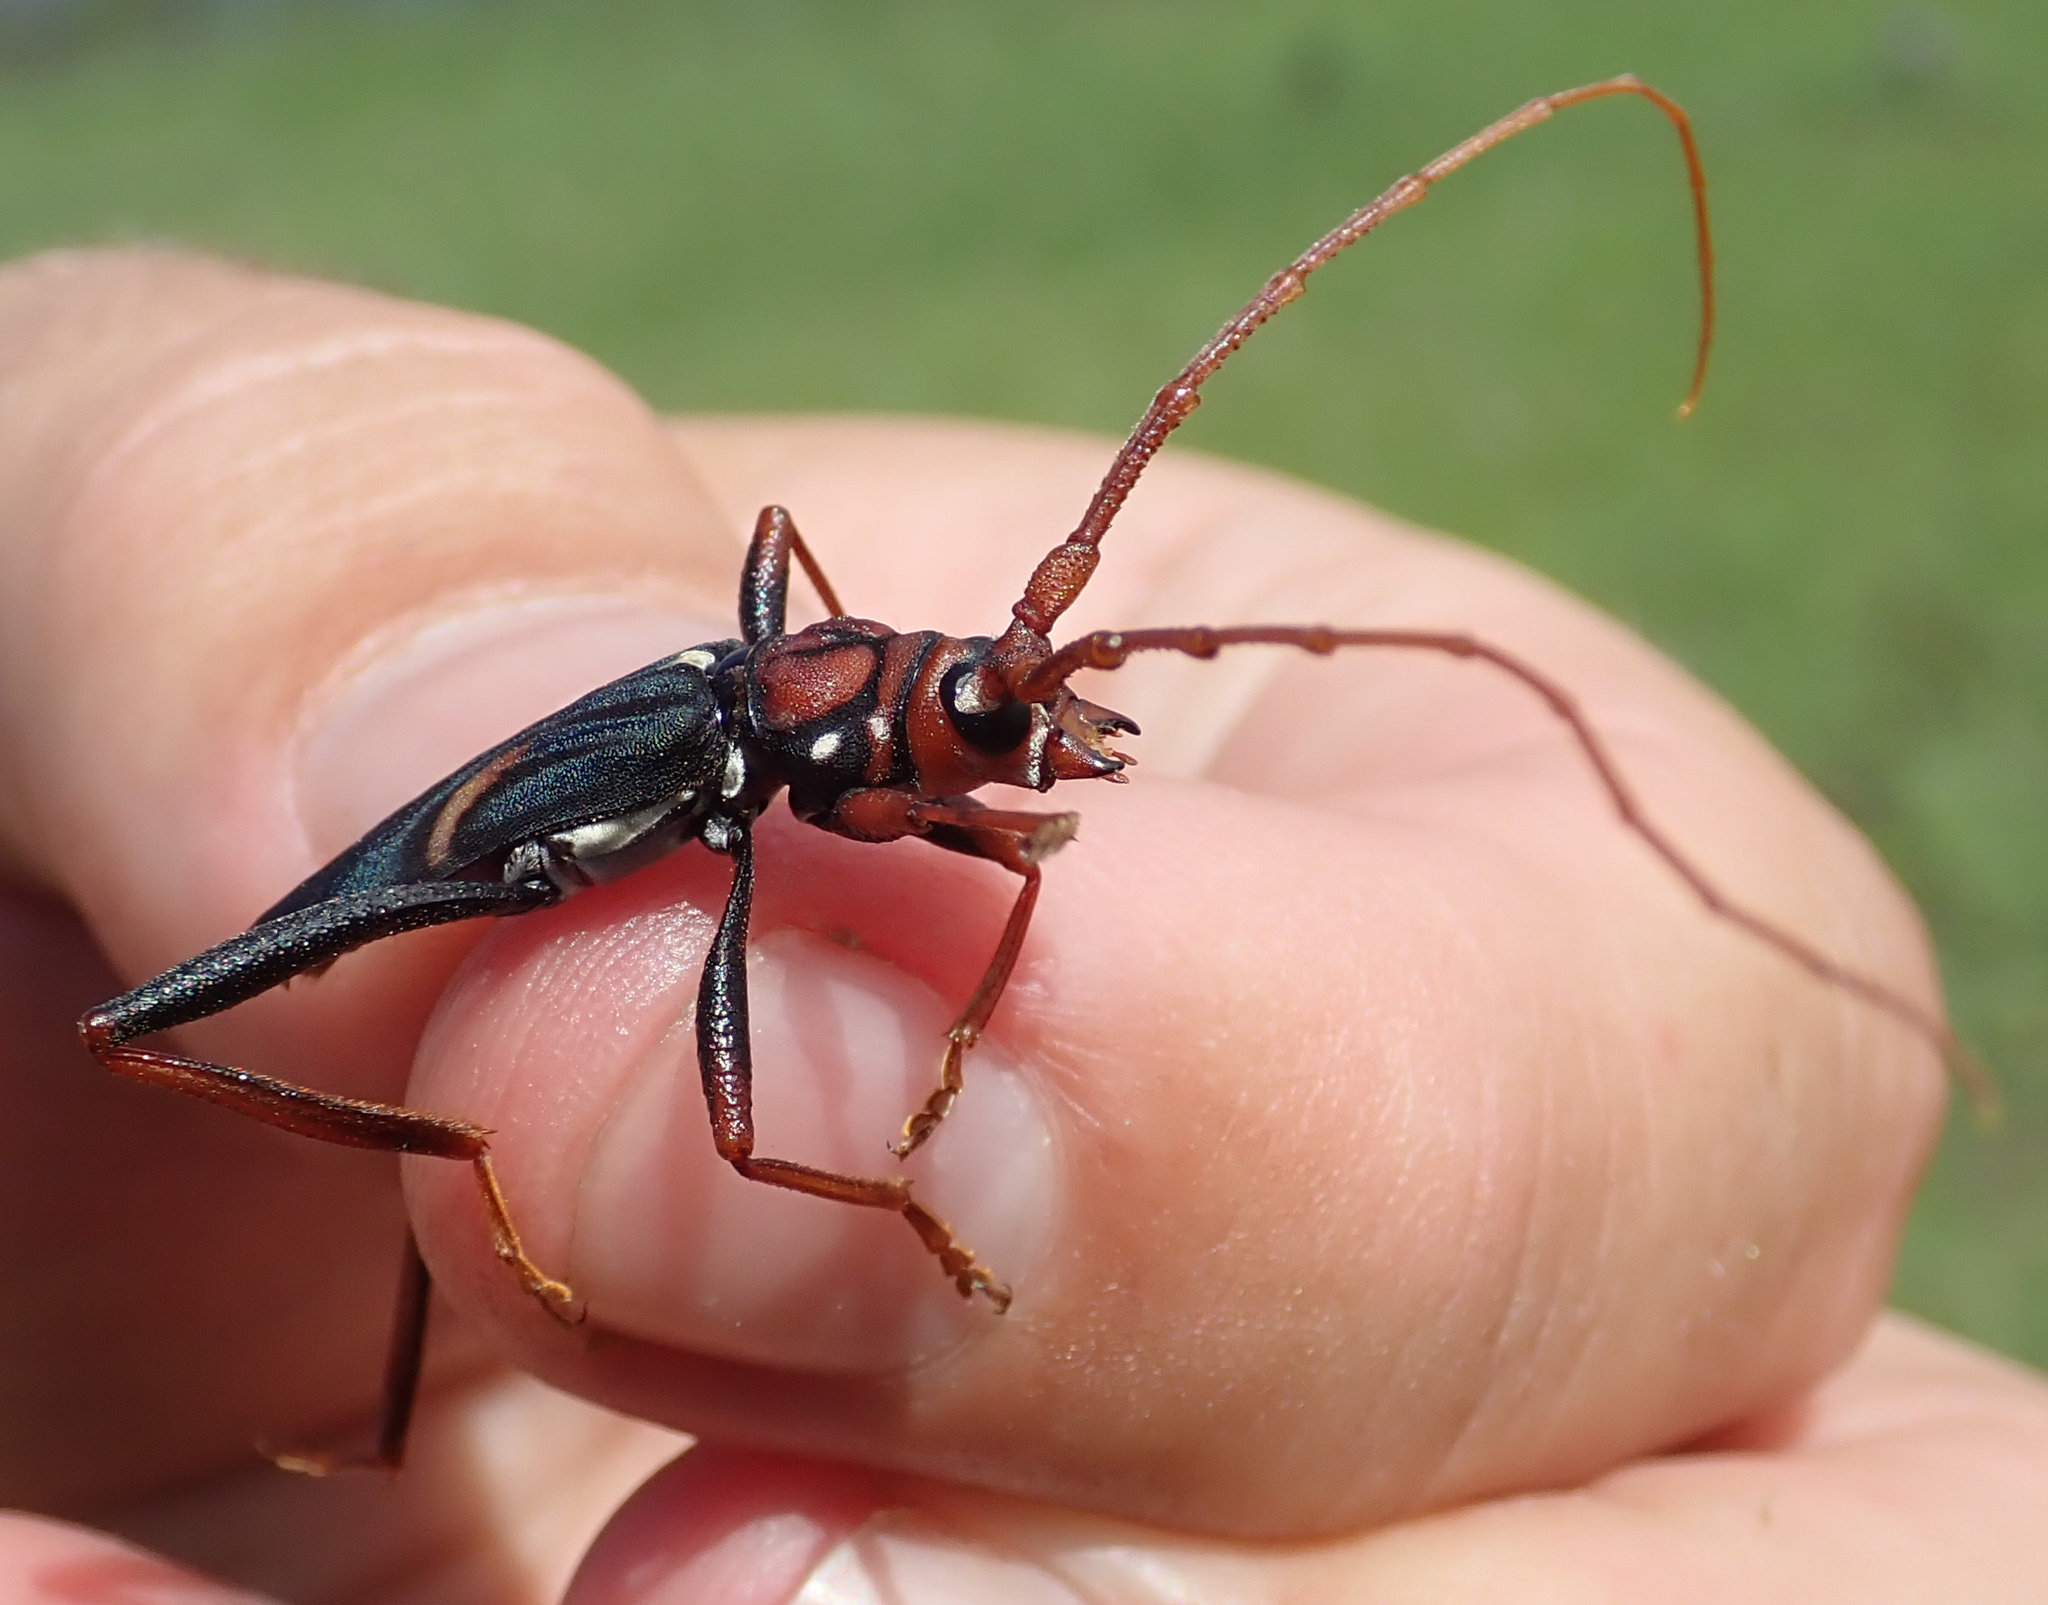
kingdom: Animalia
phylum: Arthropoda
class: Insecta
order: Coleoptera
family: Cerambycidae
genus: Compsomera
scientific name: Compsomera elegantissima
